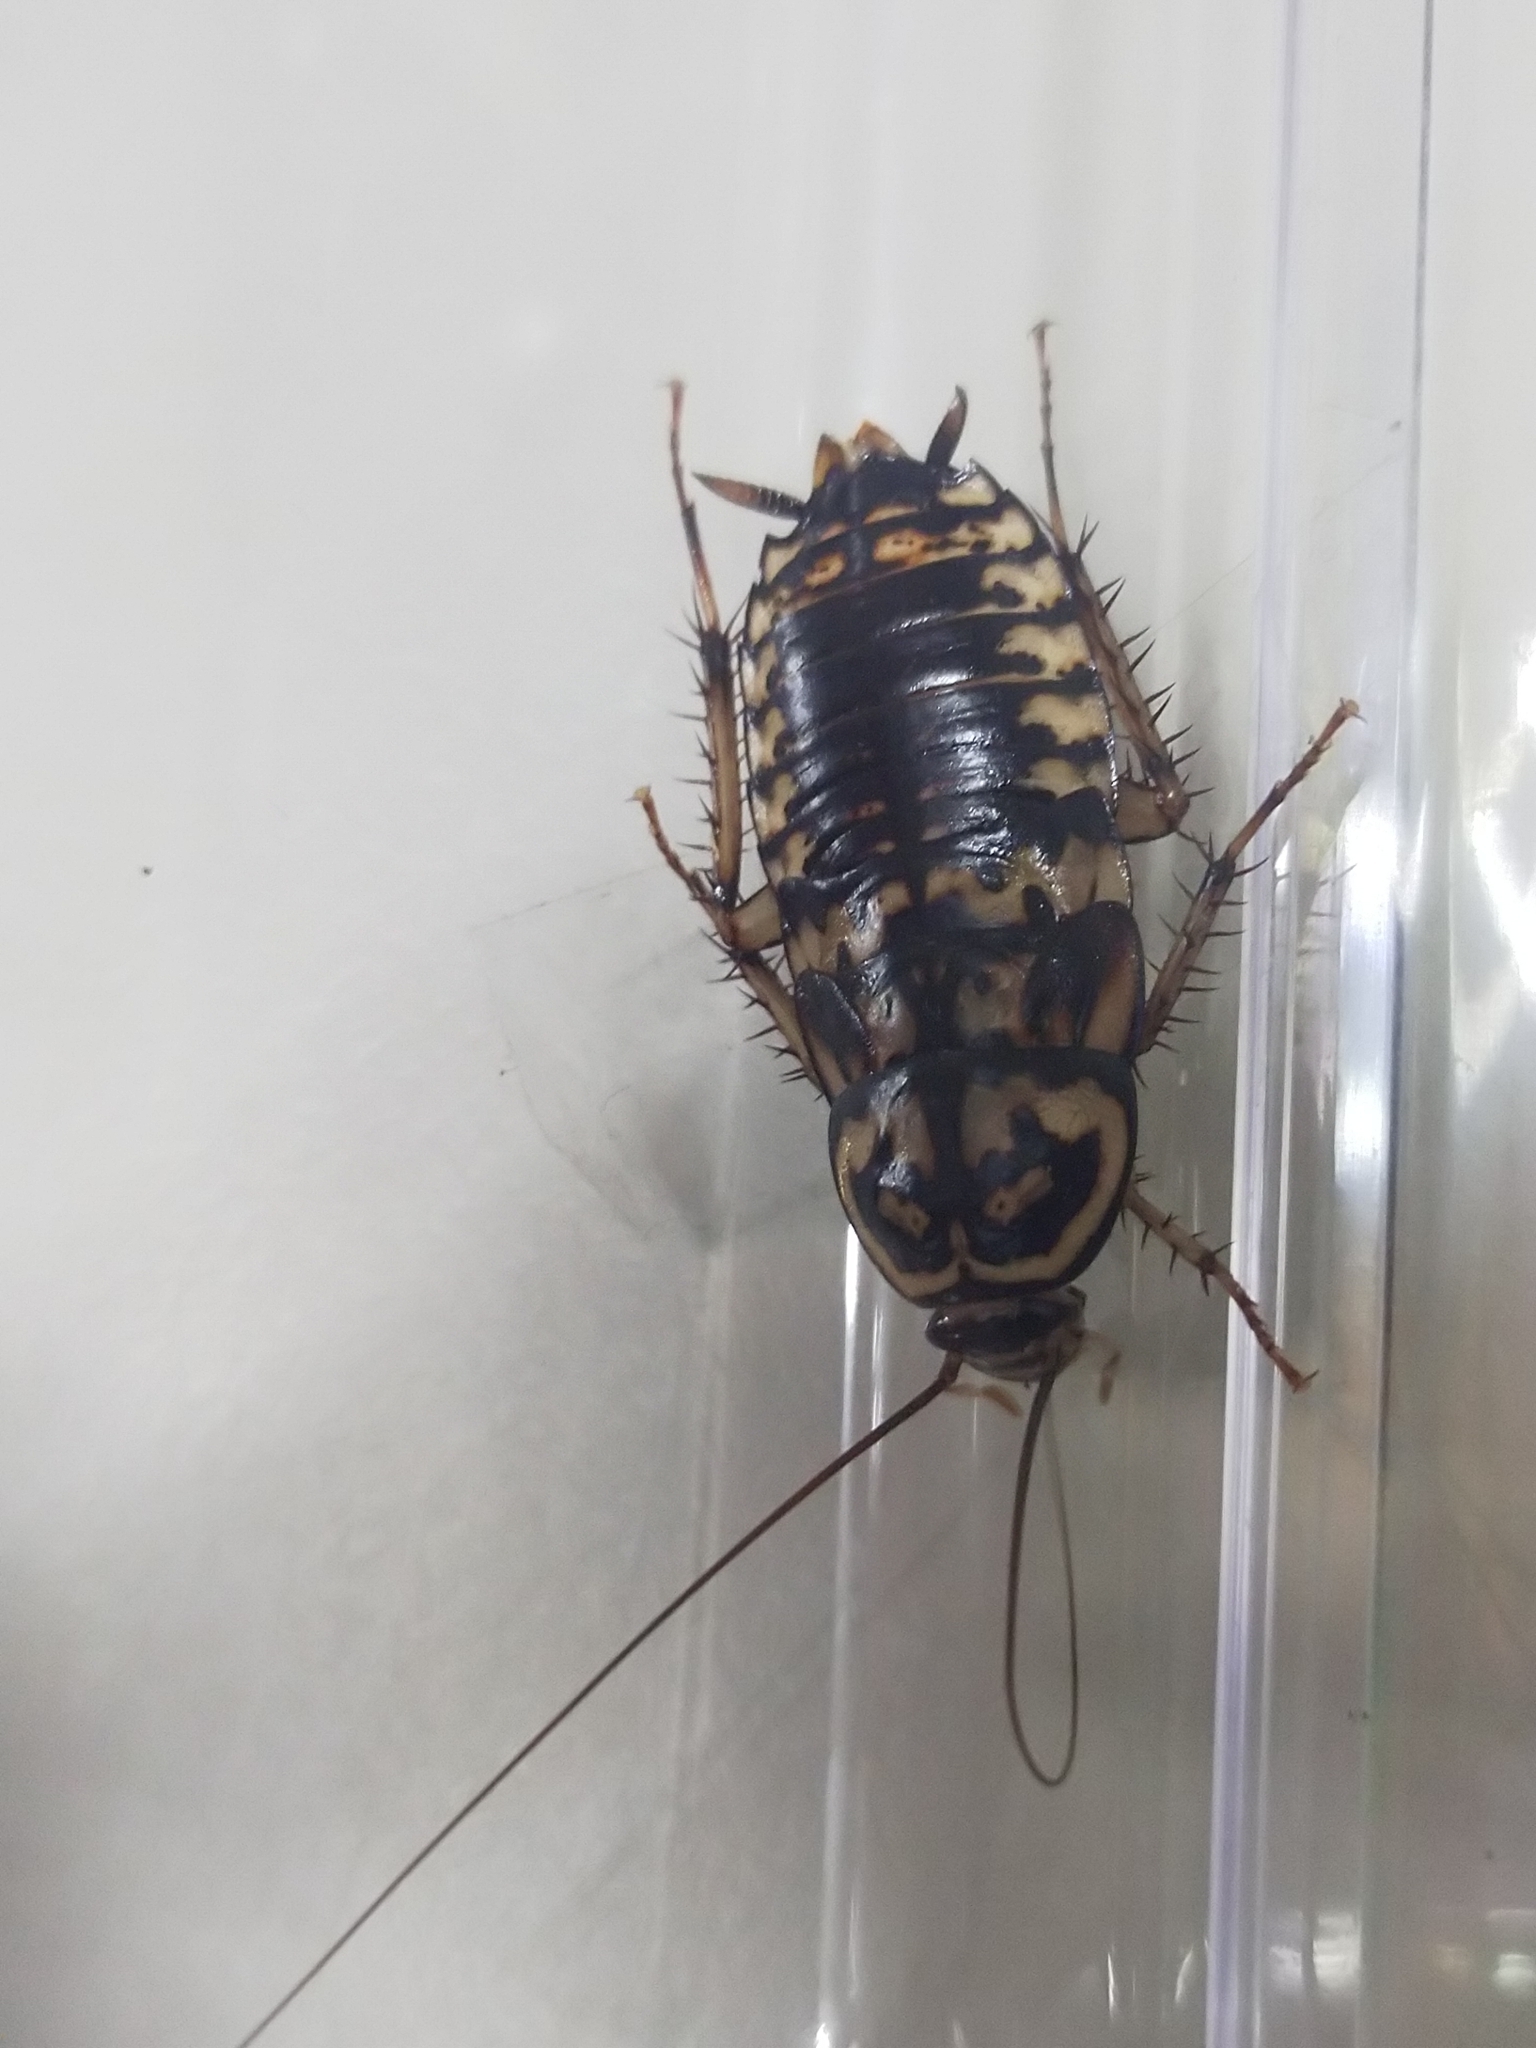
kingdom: Animalia
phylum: Arthropoda
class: Insecta
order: Blattodea
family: Blattidae
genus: Neostylopyga
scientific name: Neostylopyga rhombifolia
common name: Harlequin cockroach
